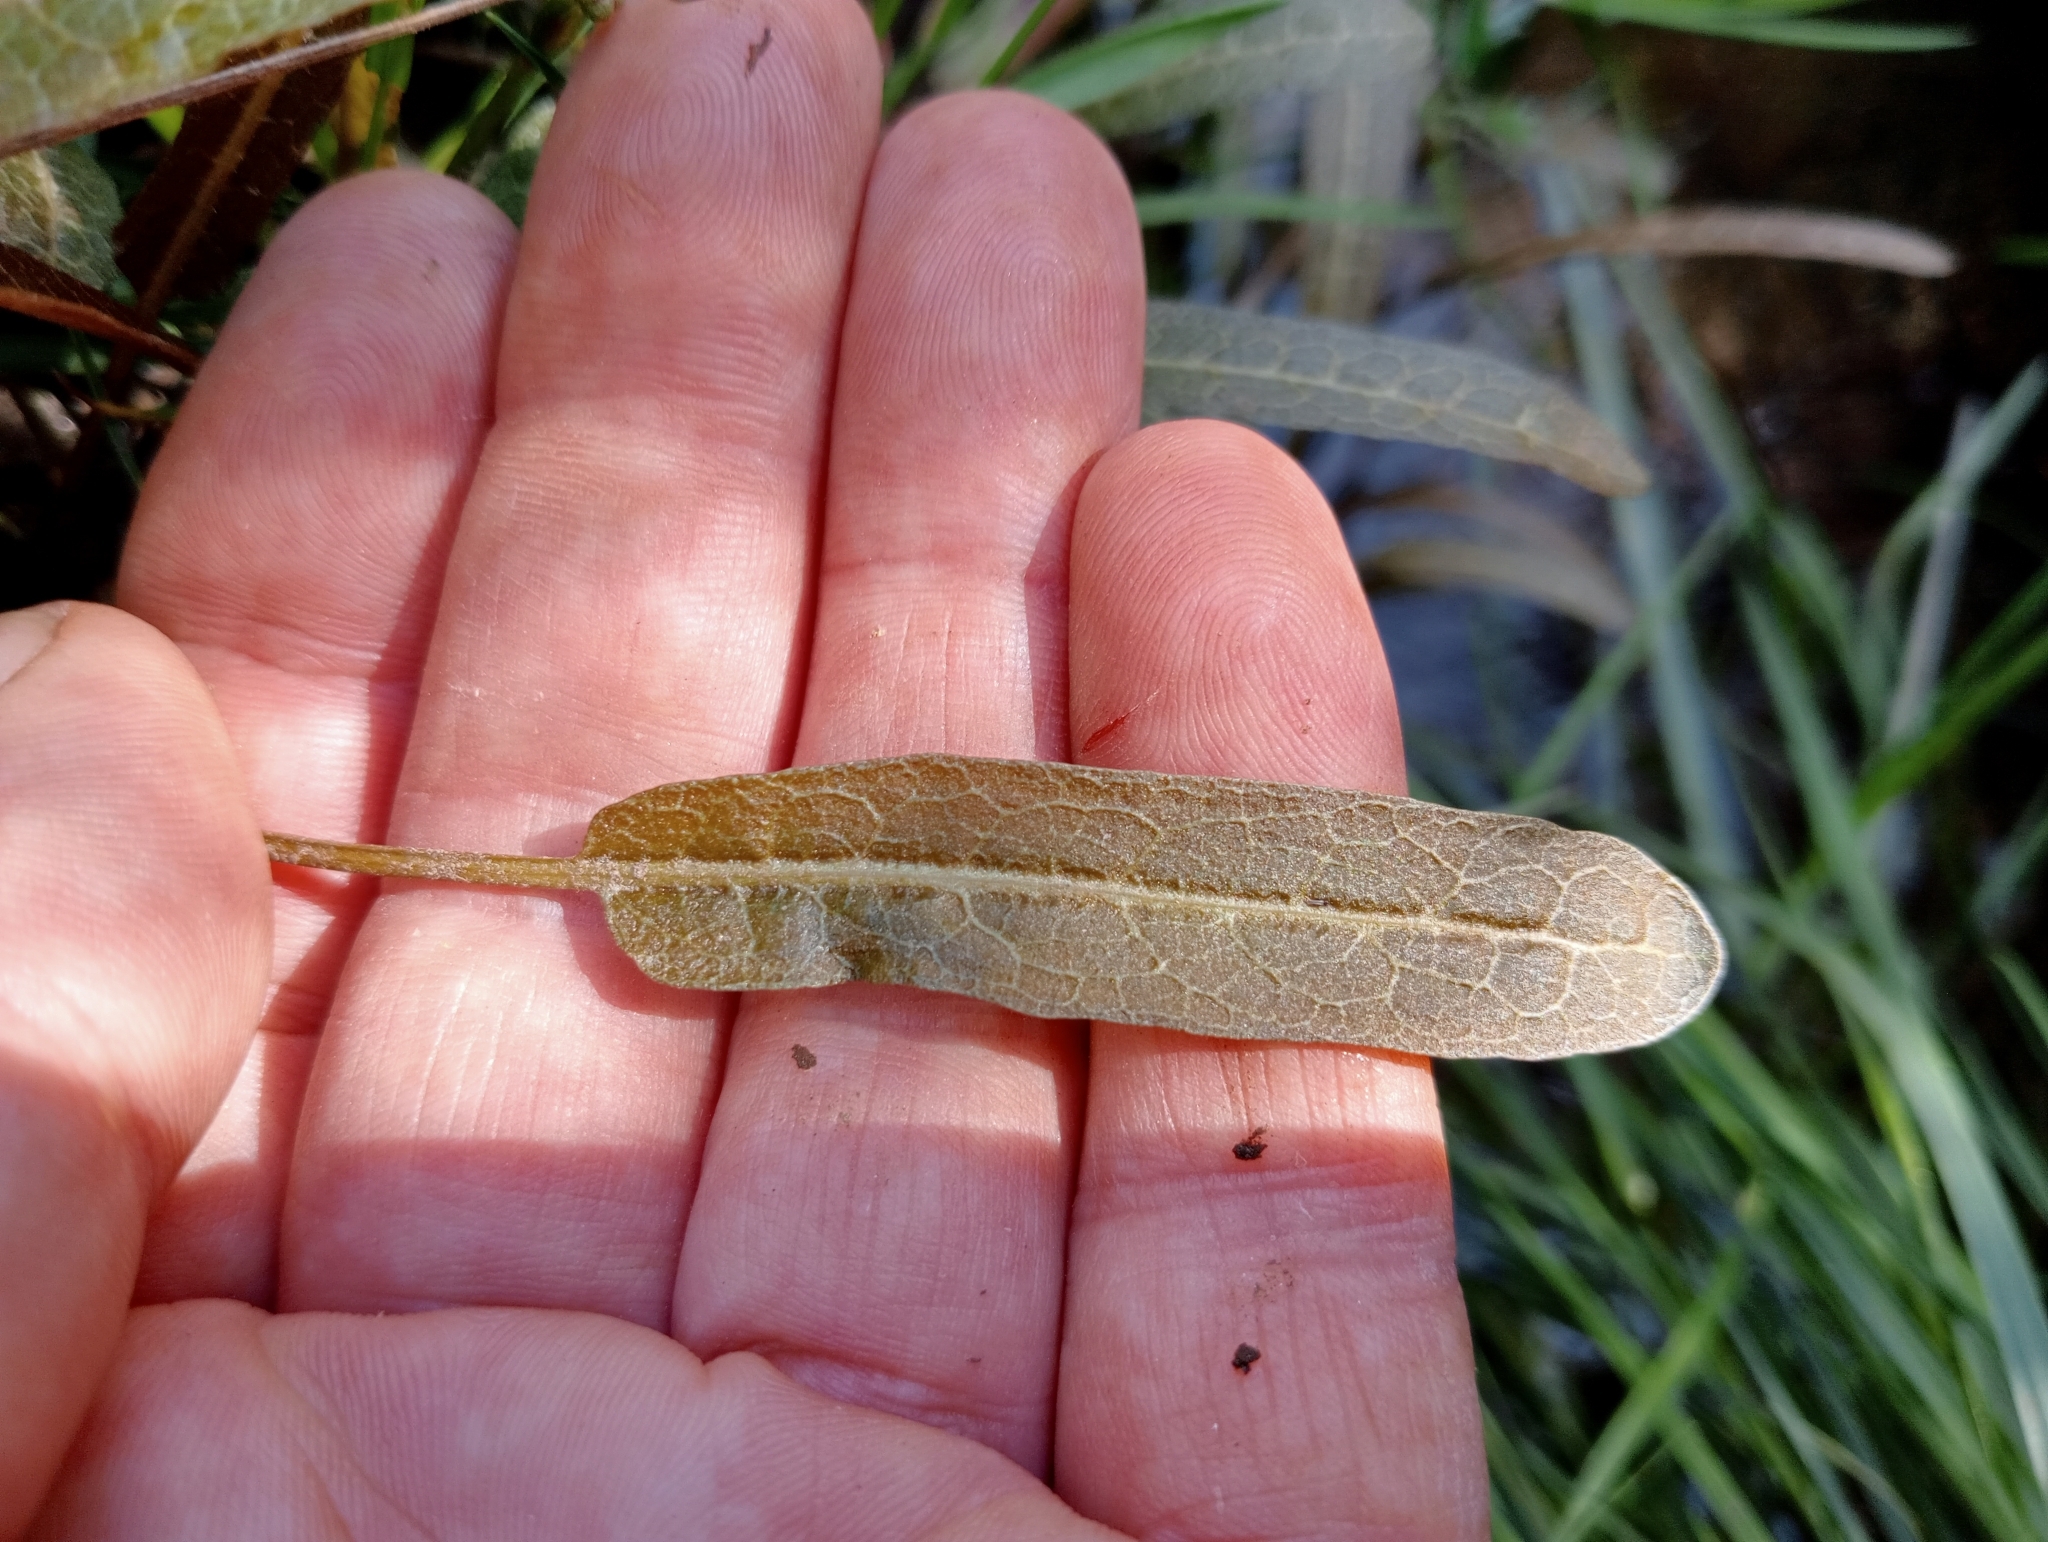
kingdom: Plantae
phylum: Tracheophyta
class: Magnoliopsida
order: Caryophyllales
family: Polygonaceae
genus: Rumex
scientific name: Rumex flexuosus
